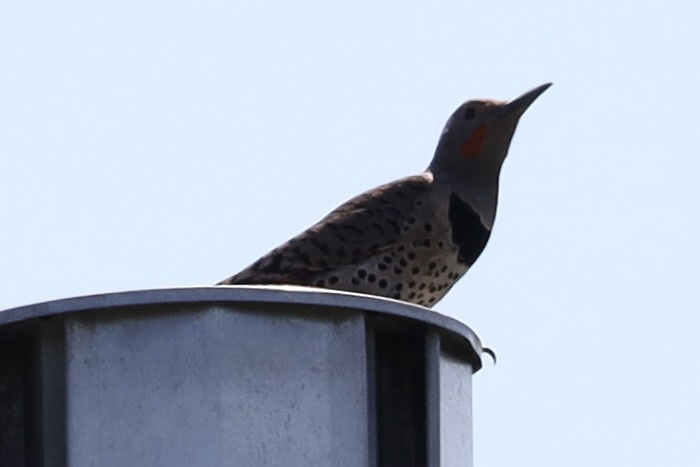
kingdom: Animalia
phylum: Chordata
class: Aves
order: Piciformes
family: Picidae
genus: Colaptes
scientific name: Colaptes auratus
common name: Northern flicker
